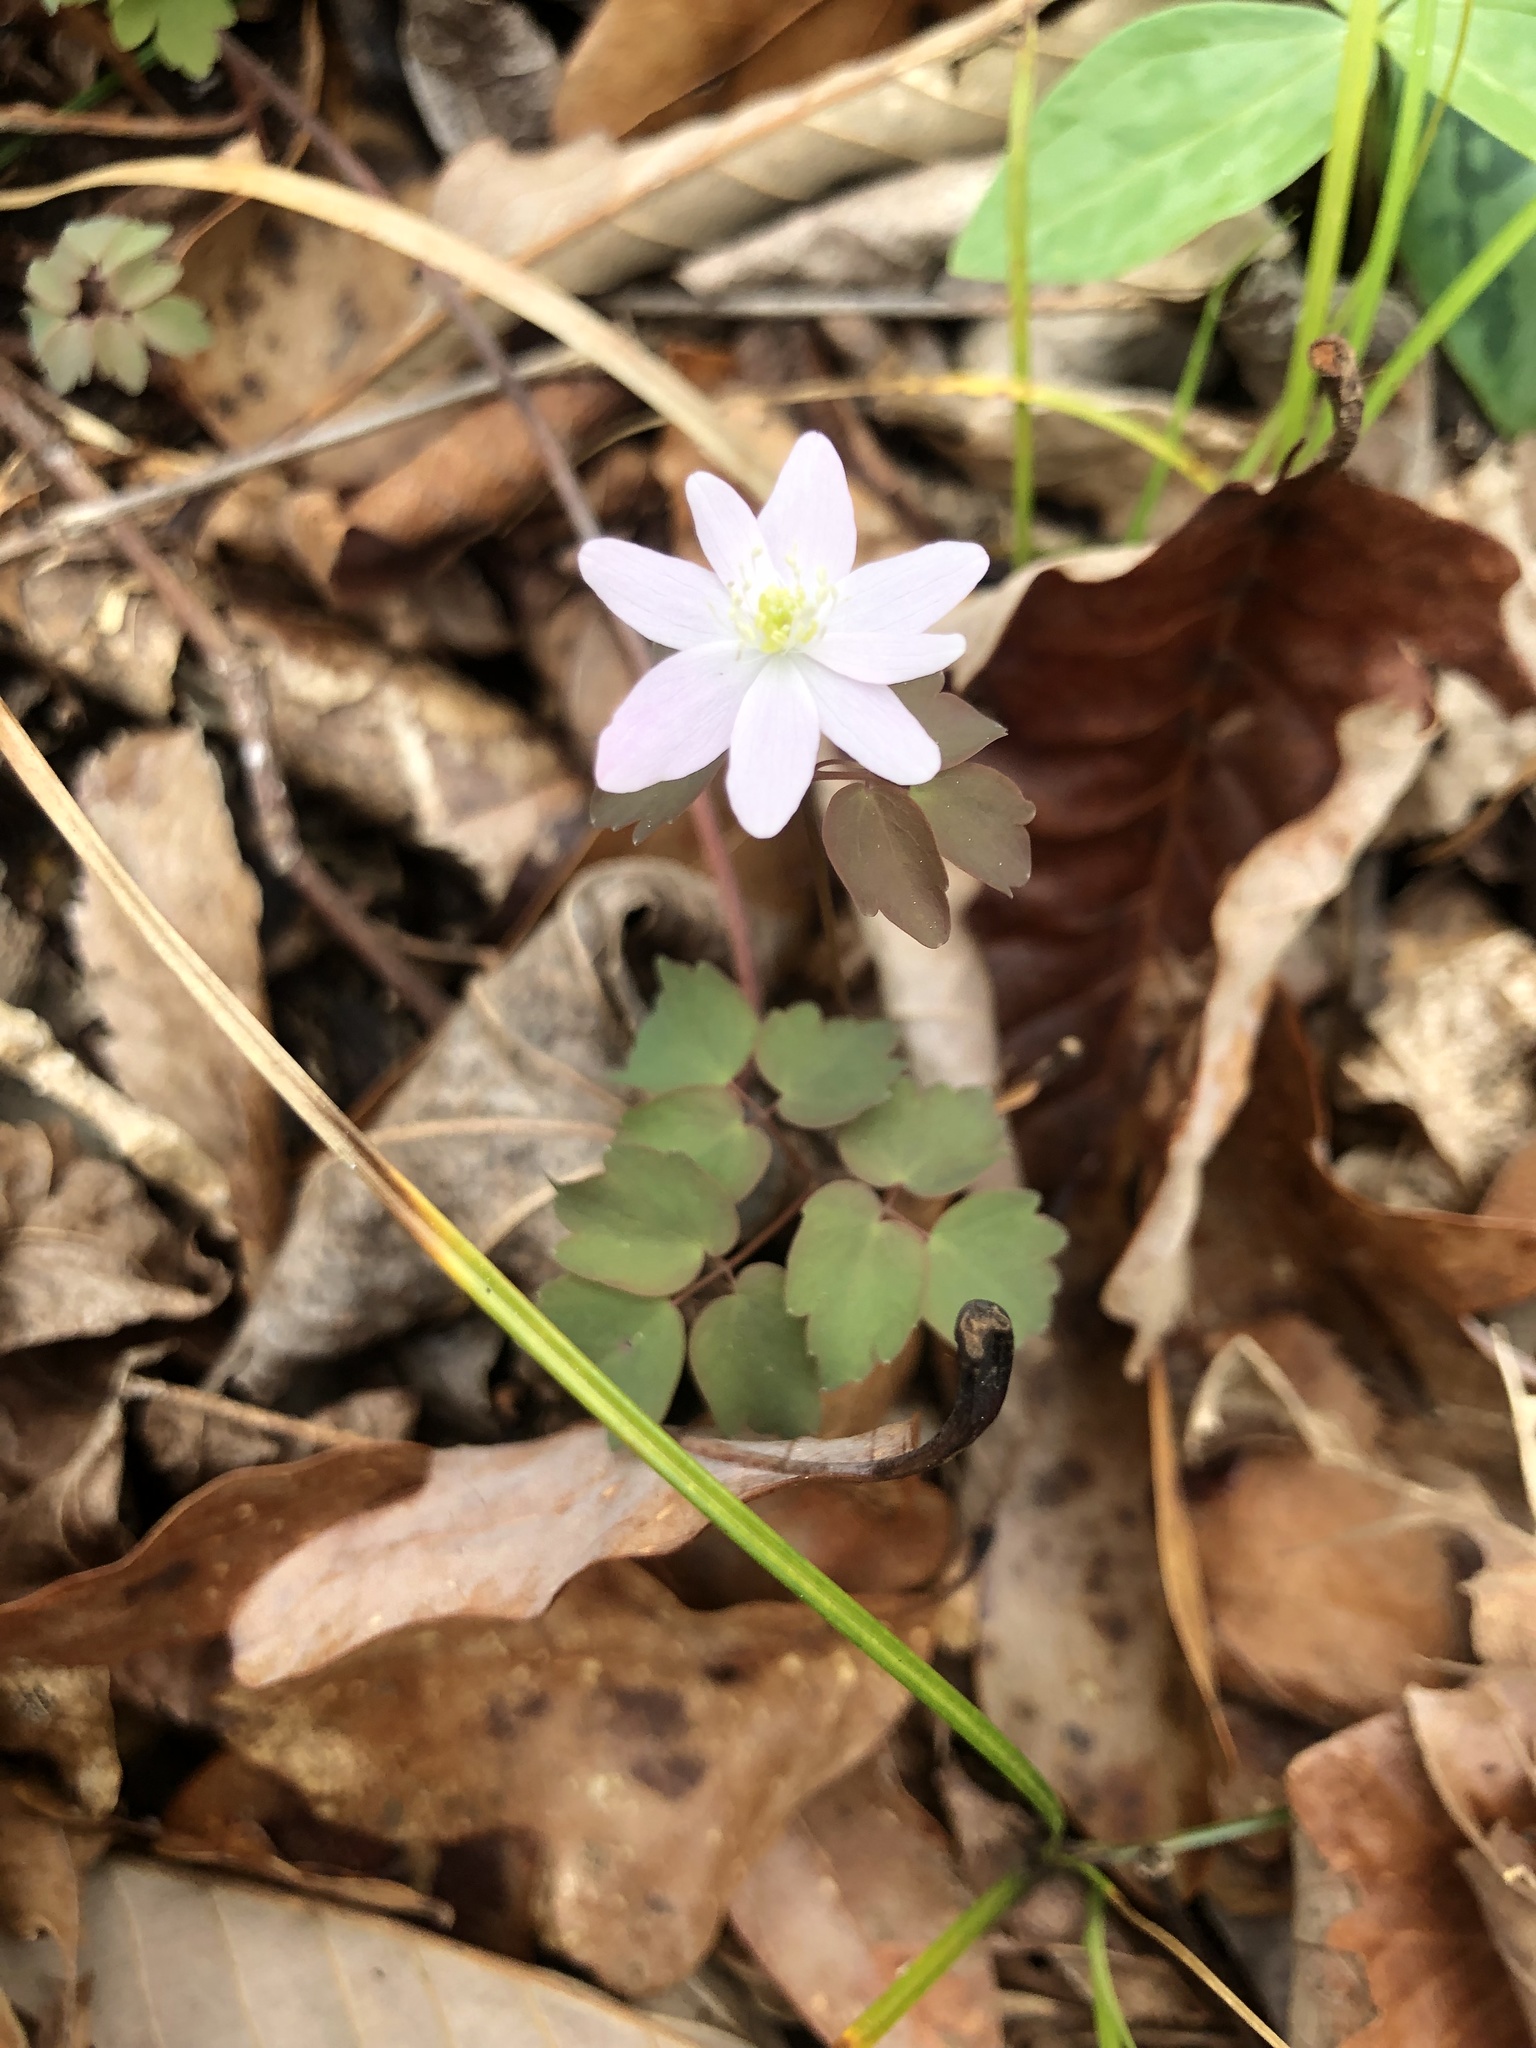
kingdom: Plantae
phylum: Tracheophyta
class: Magnoliopsida
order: Ranunculales
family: Ranunculaceae
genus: Thalictrum
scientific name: Thalictrum thalictroides
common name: Rue-anemone
